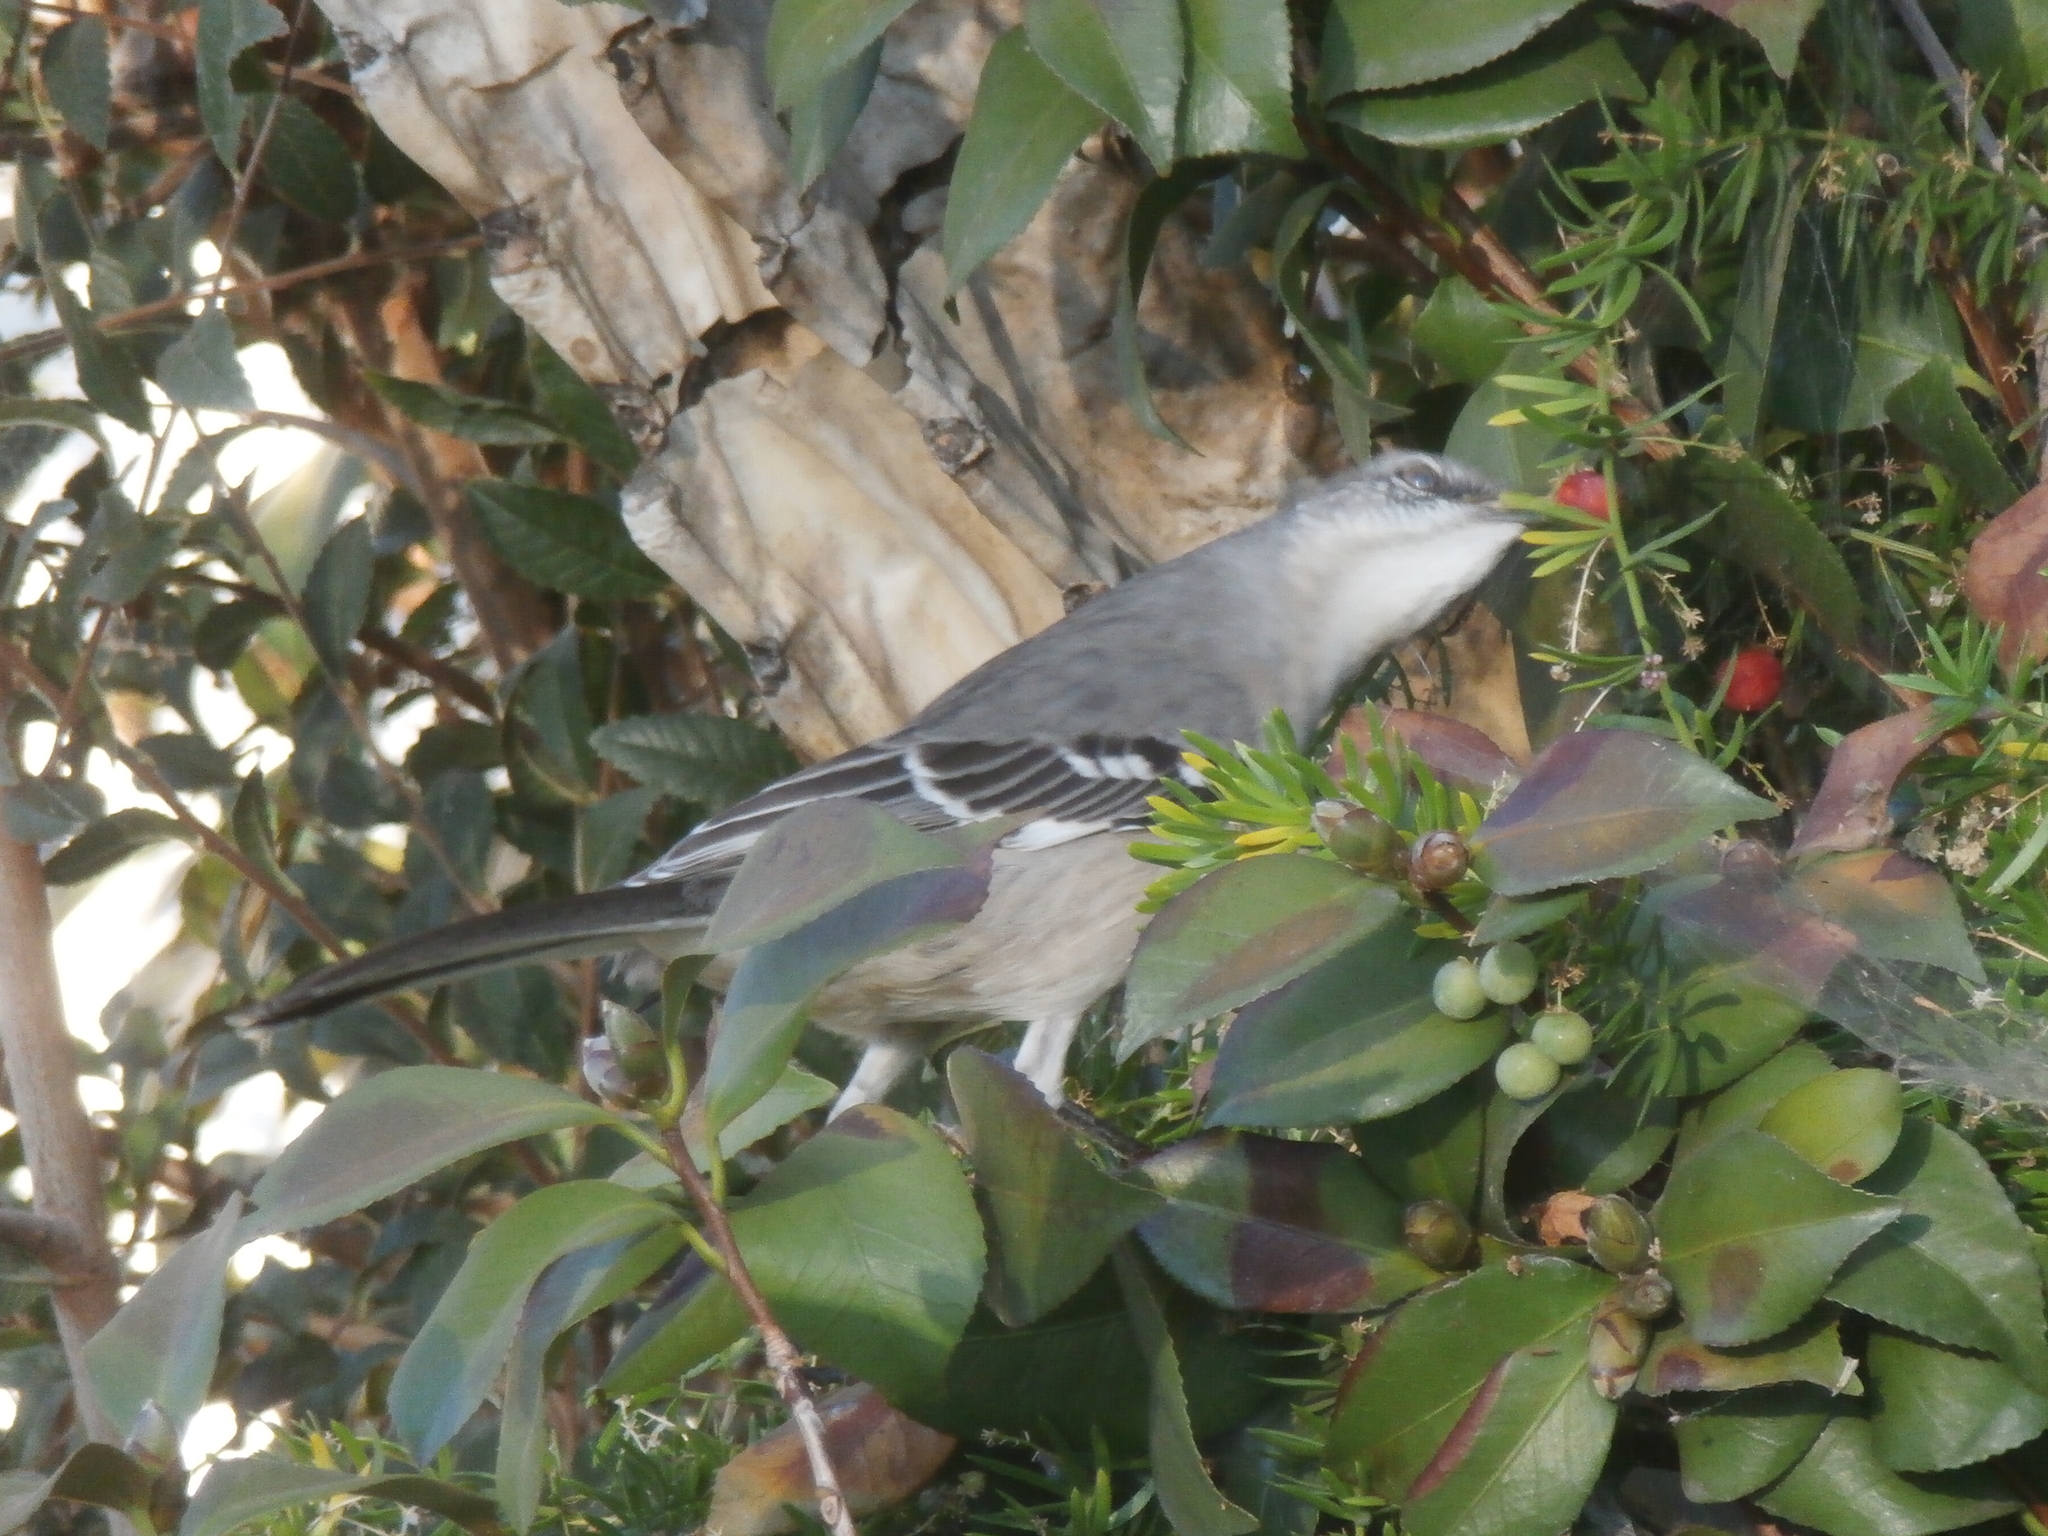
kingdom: Animalia
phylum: Chordata
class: Aves
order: Passeriformes
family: Mimidae
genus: Mimus
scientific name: Mimus polyglottos
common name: Northern mockingbird
